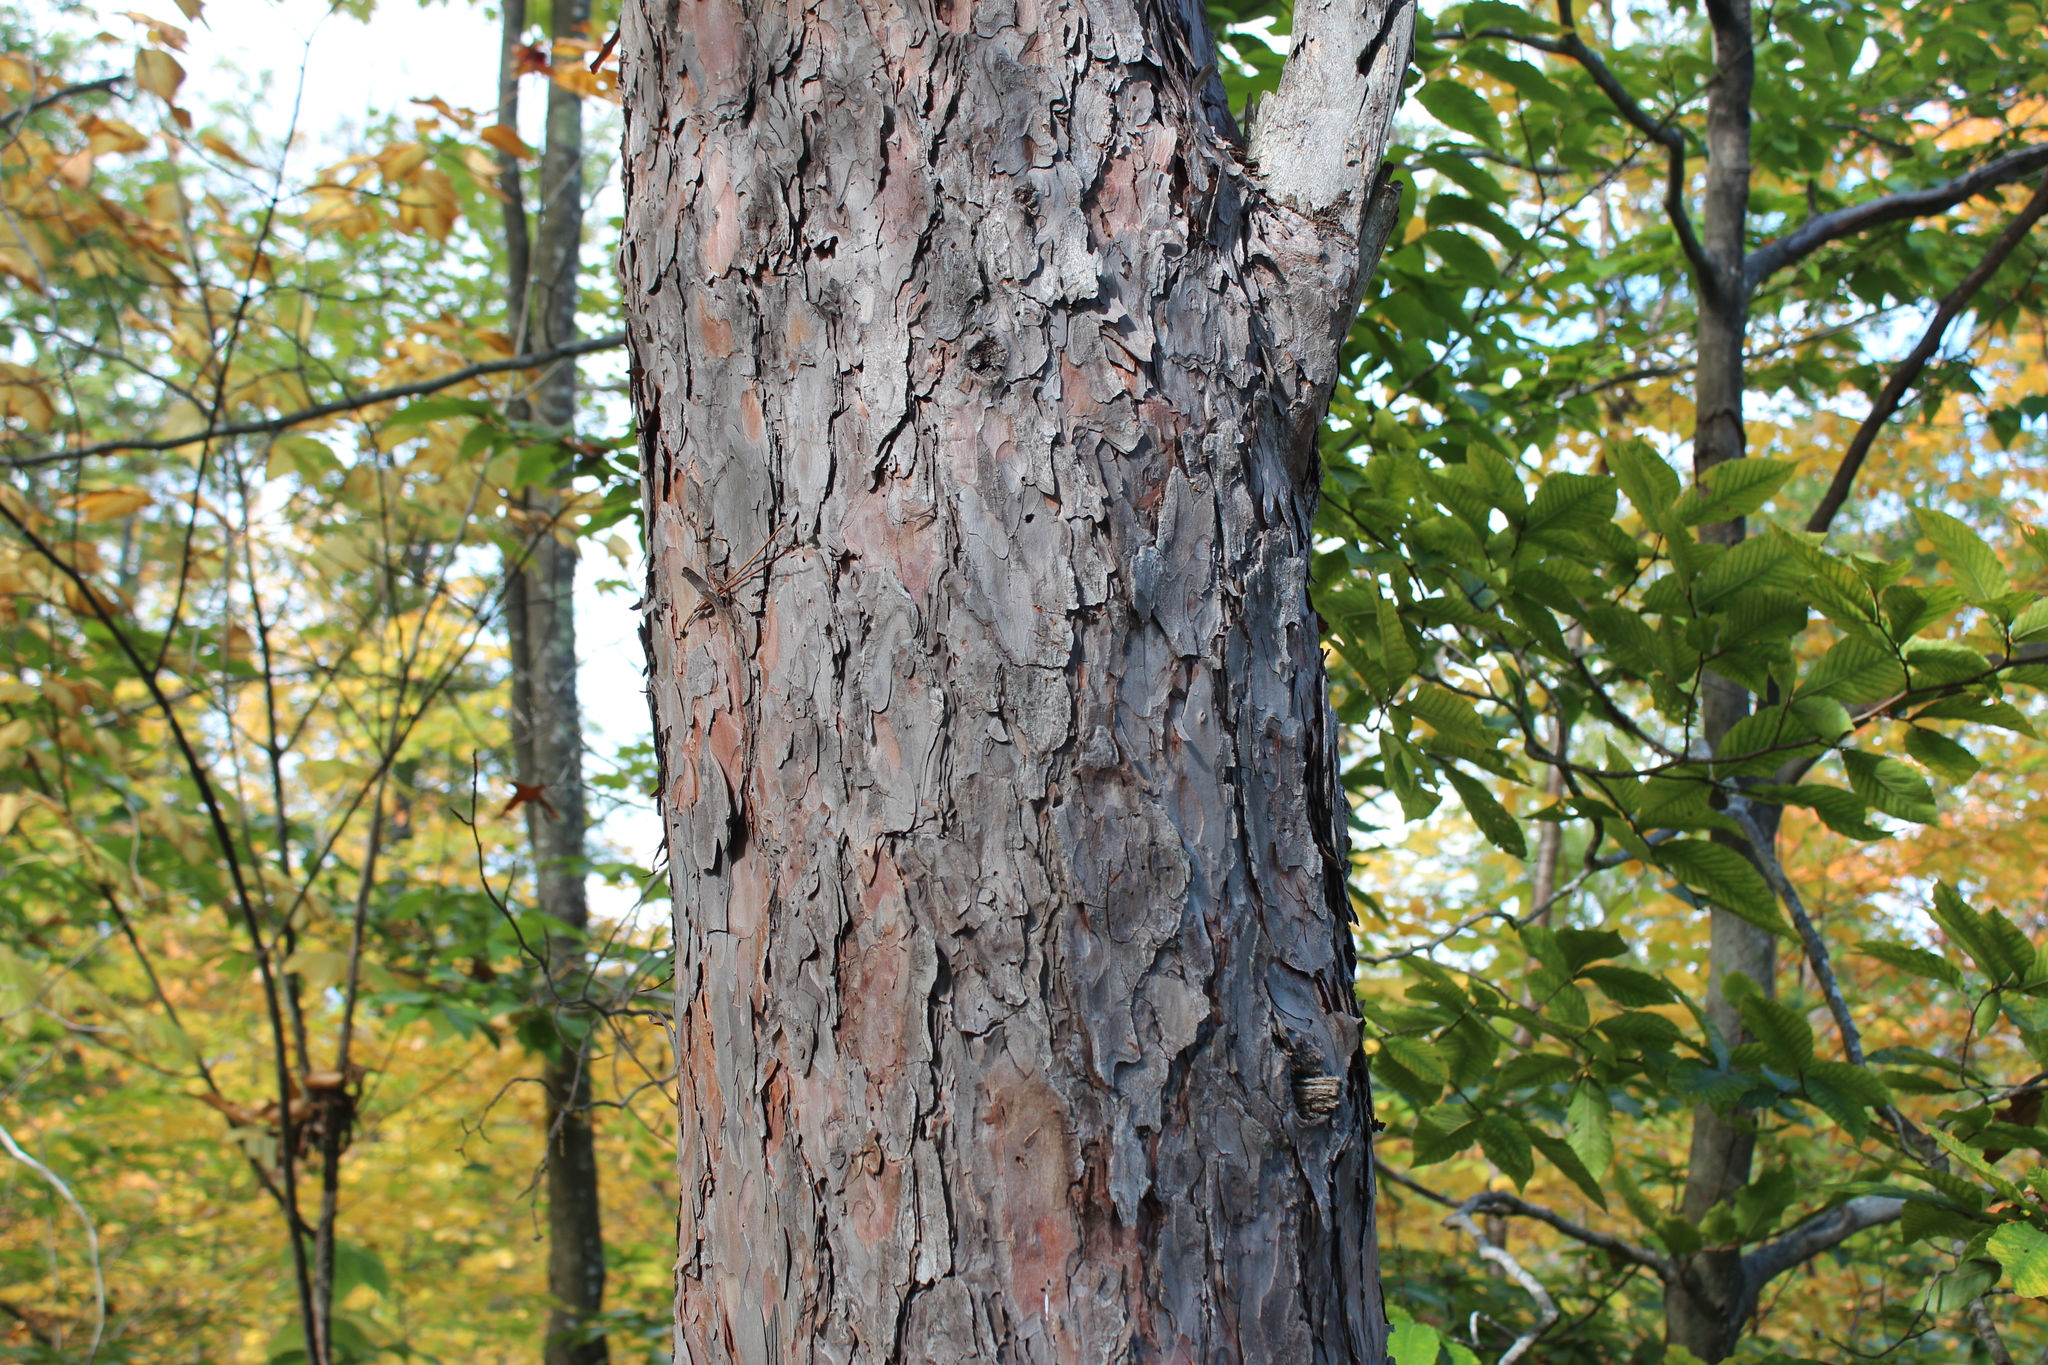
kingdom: Plantae
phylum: Tracheophyta
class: Pinopsida
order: Pinales
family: Pinaceae
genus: Pinus
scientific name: Pinus resinosa
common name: Norway pine
